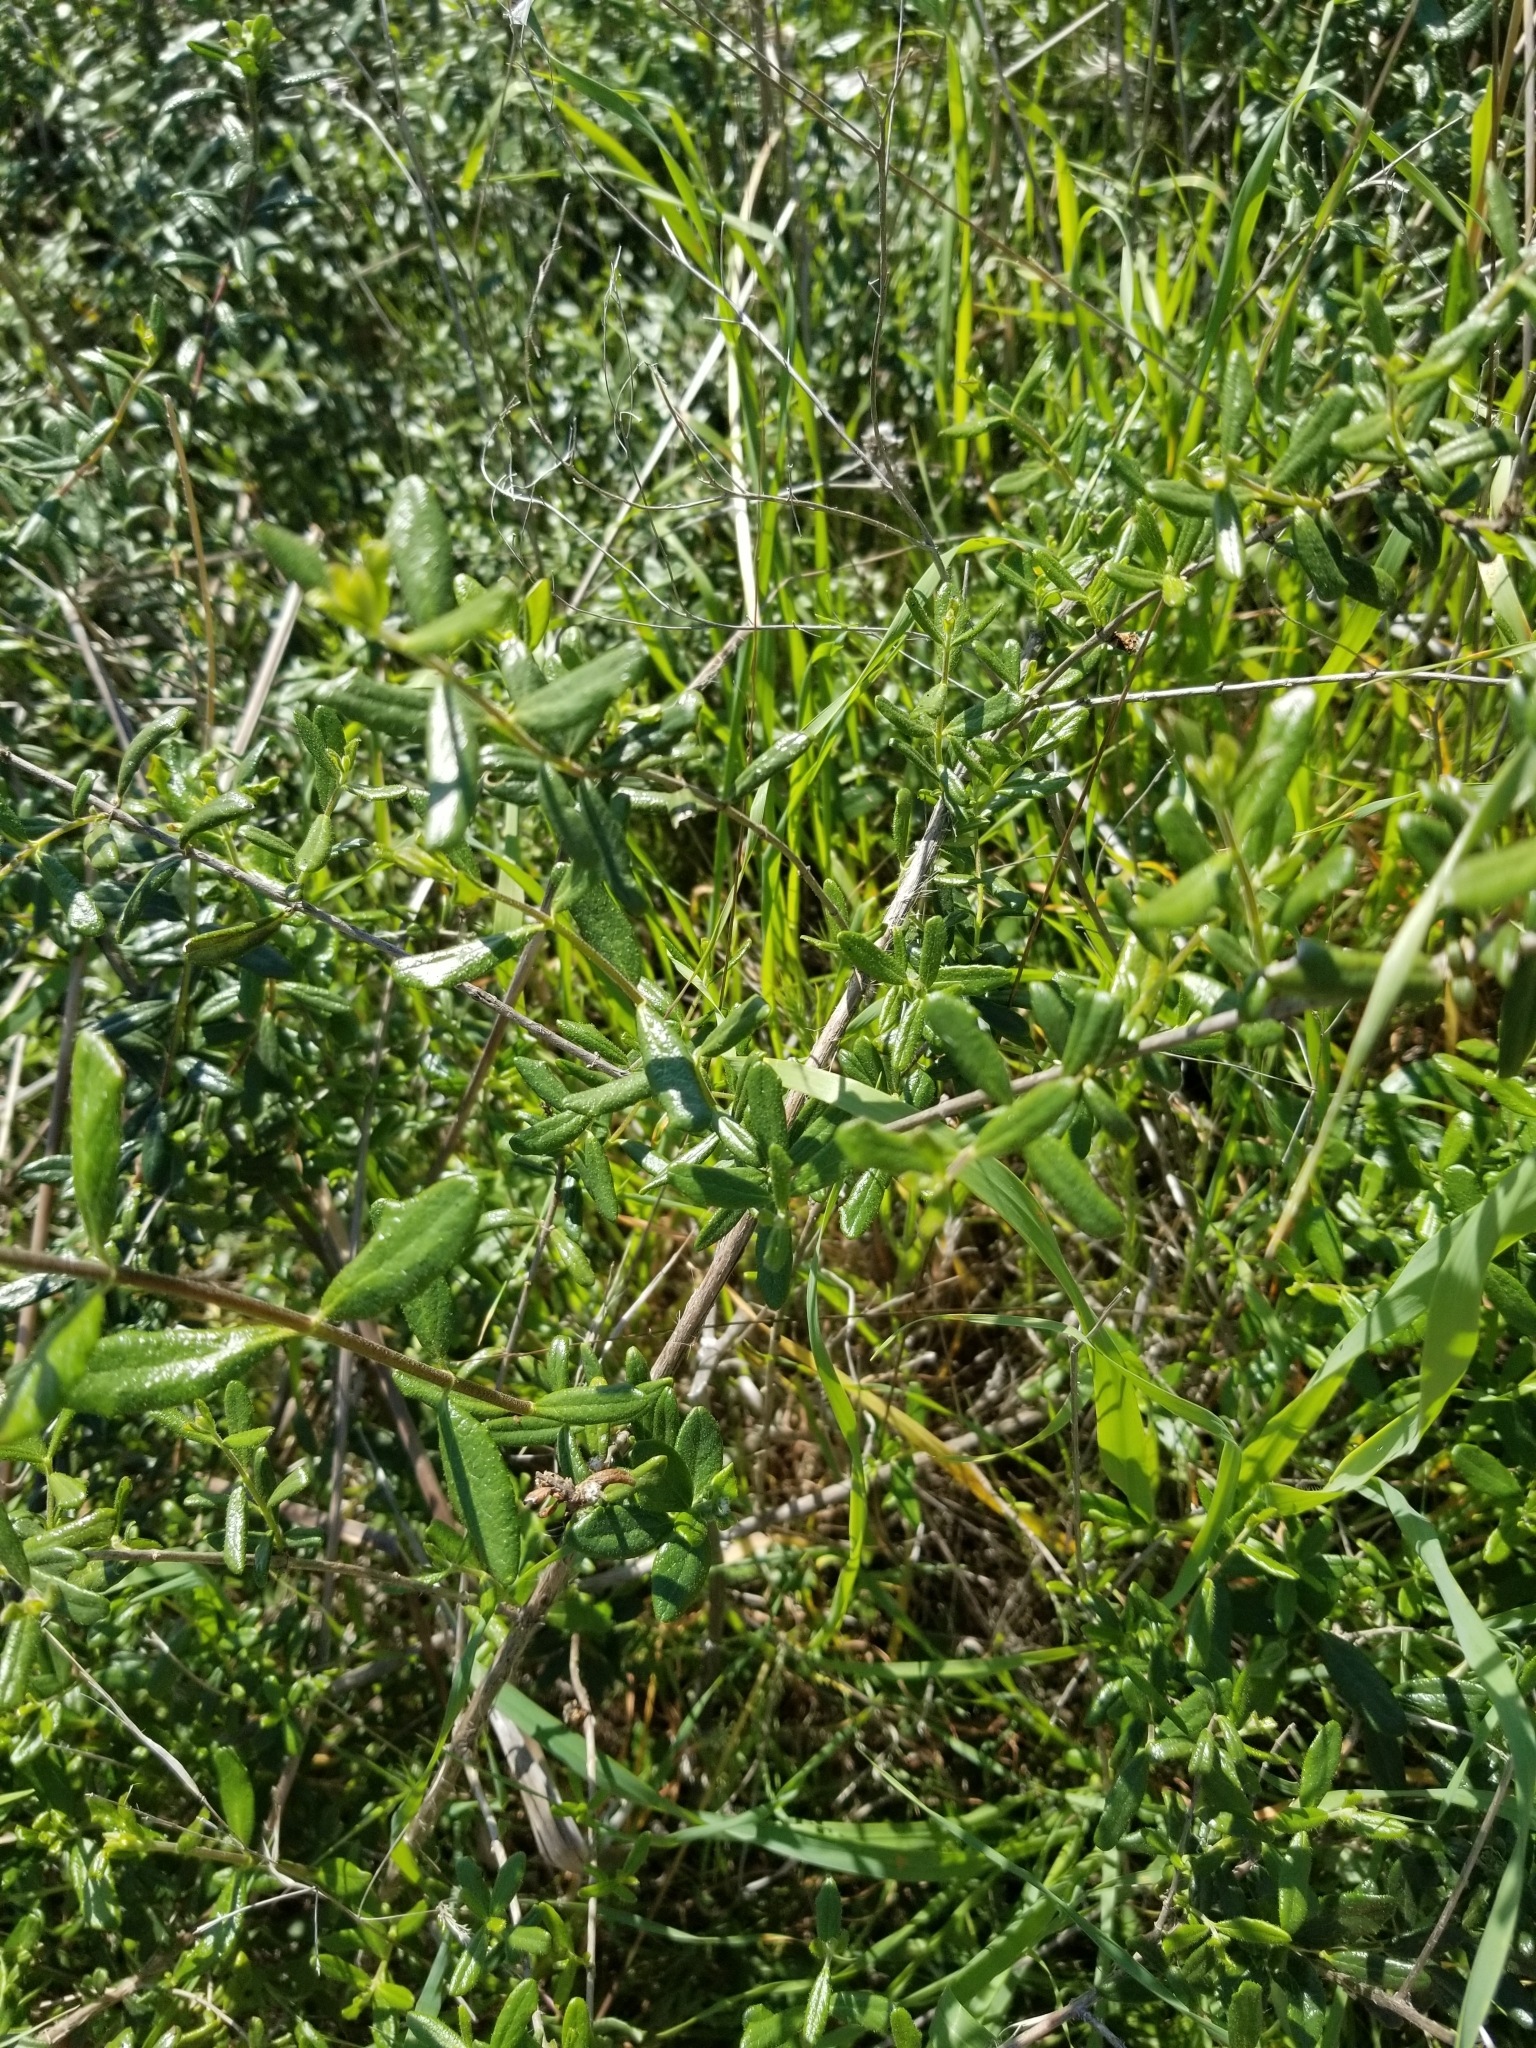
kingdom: Plantae
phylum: Tracheophyta
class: Magnoliopsida
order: Dipsacales
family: Caprifoliaceae
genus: Lonicera
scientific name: Lonicera subspicata
